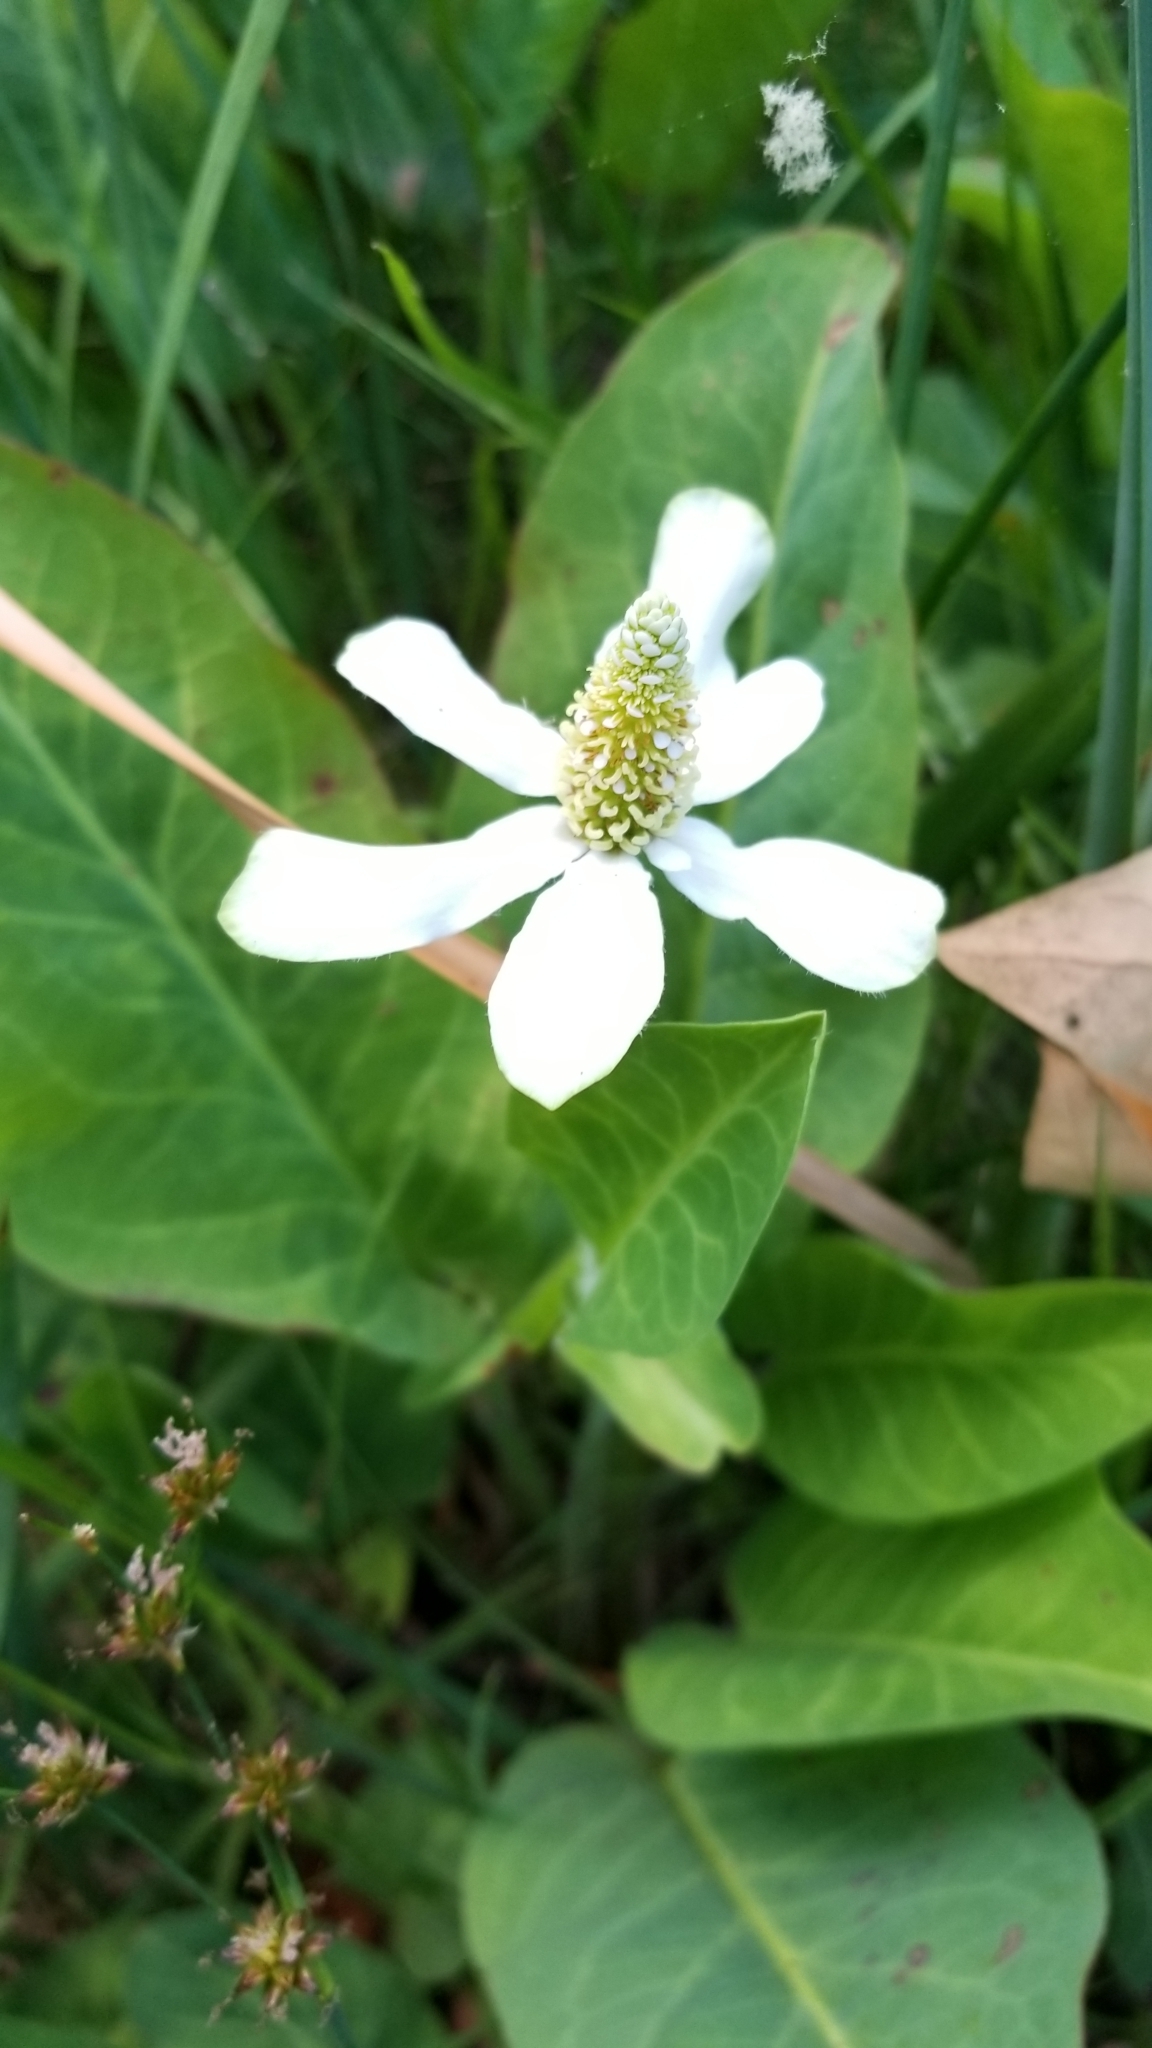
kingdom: Plantae
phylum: Tracheophyta
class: Magnoliopsida
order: Piperales
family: Saururaceae
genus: Anemopsis
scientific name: Anemopsis californica
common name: Apache-beads
